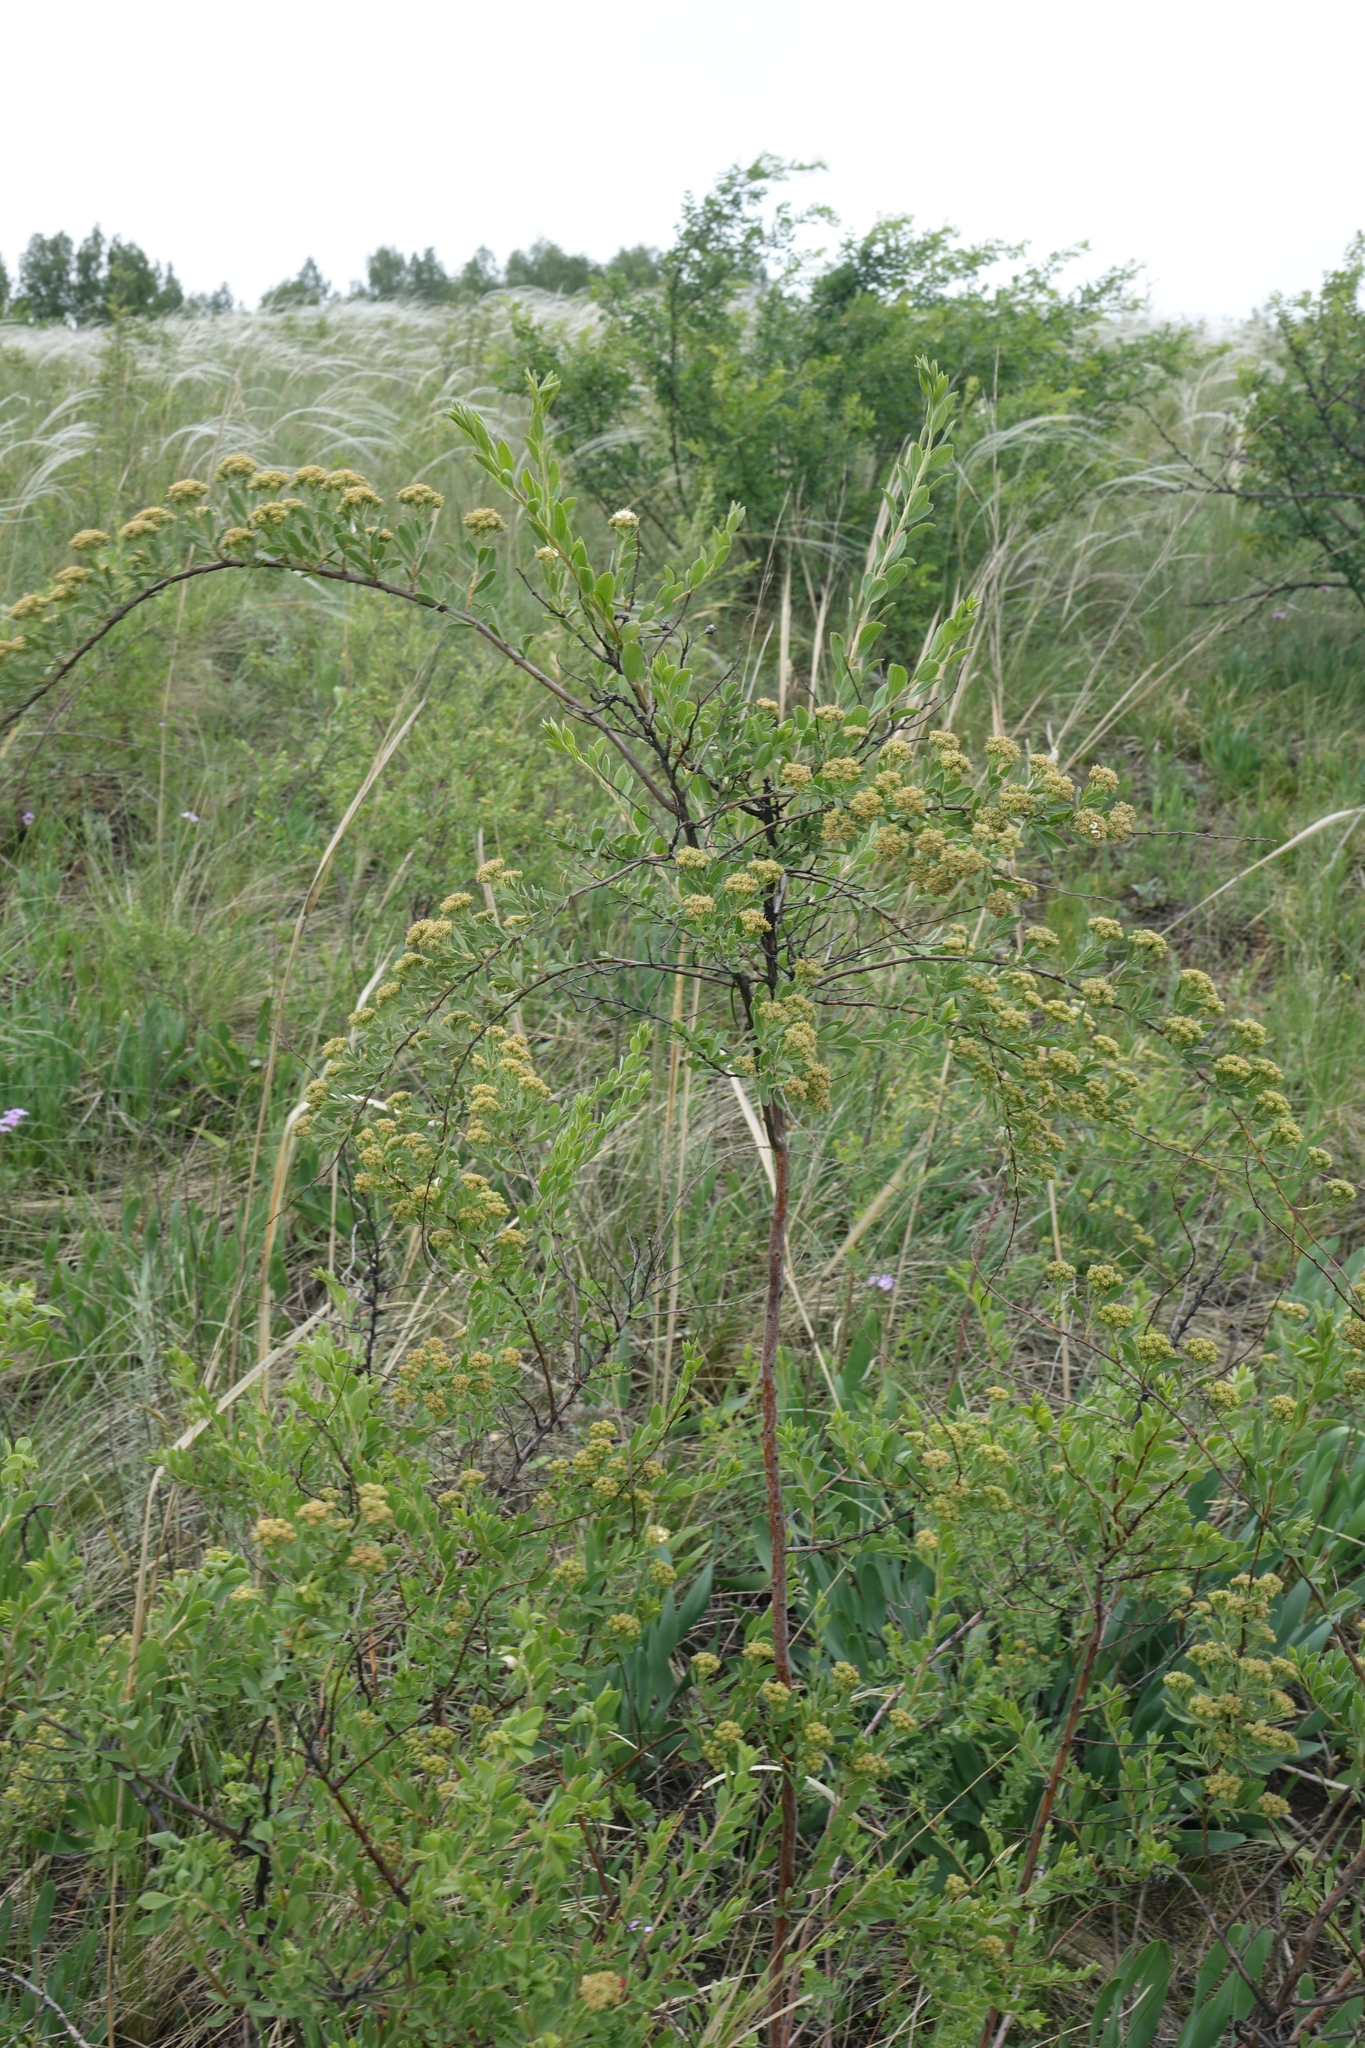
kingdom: Plantae
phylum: Tracheophyta
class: Magnoliopsida
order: Rosales
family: Rosaceae
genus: Spiraea
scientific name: Spiraea crenata
